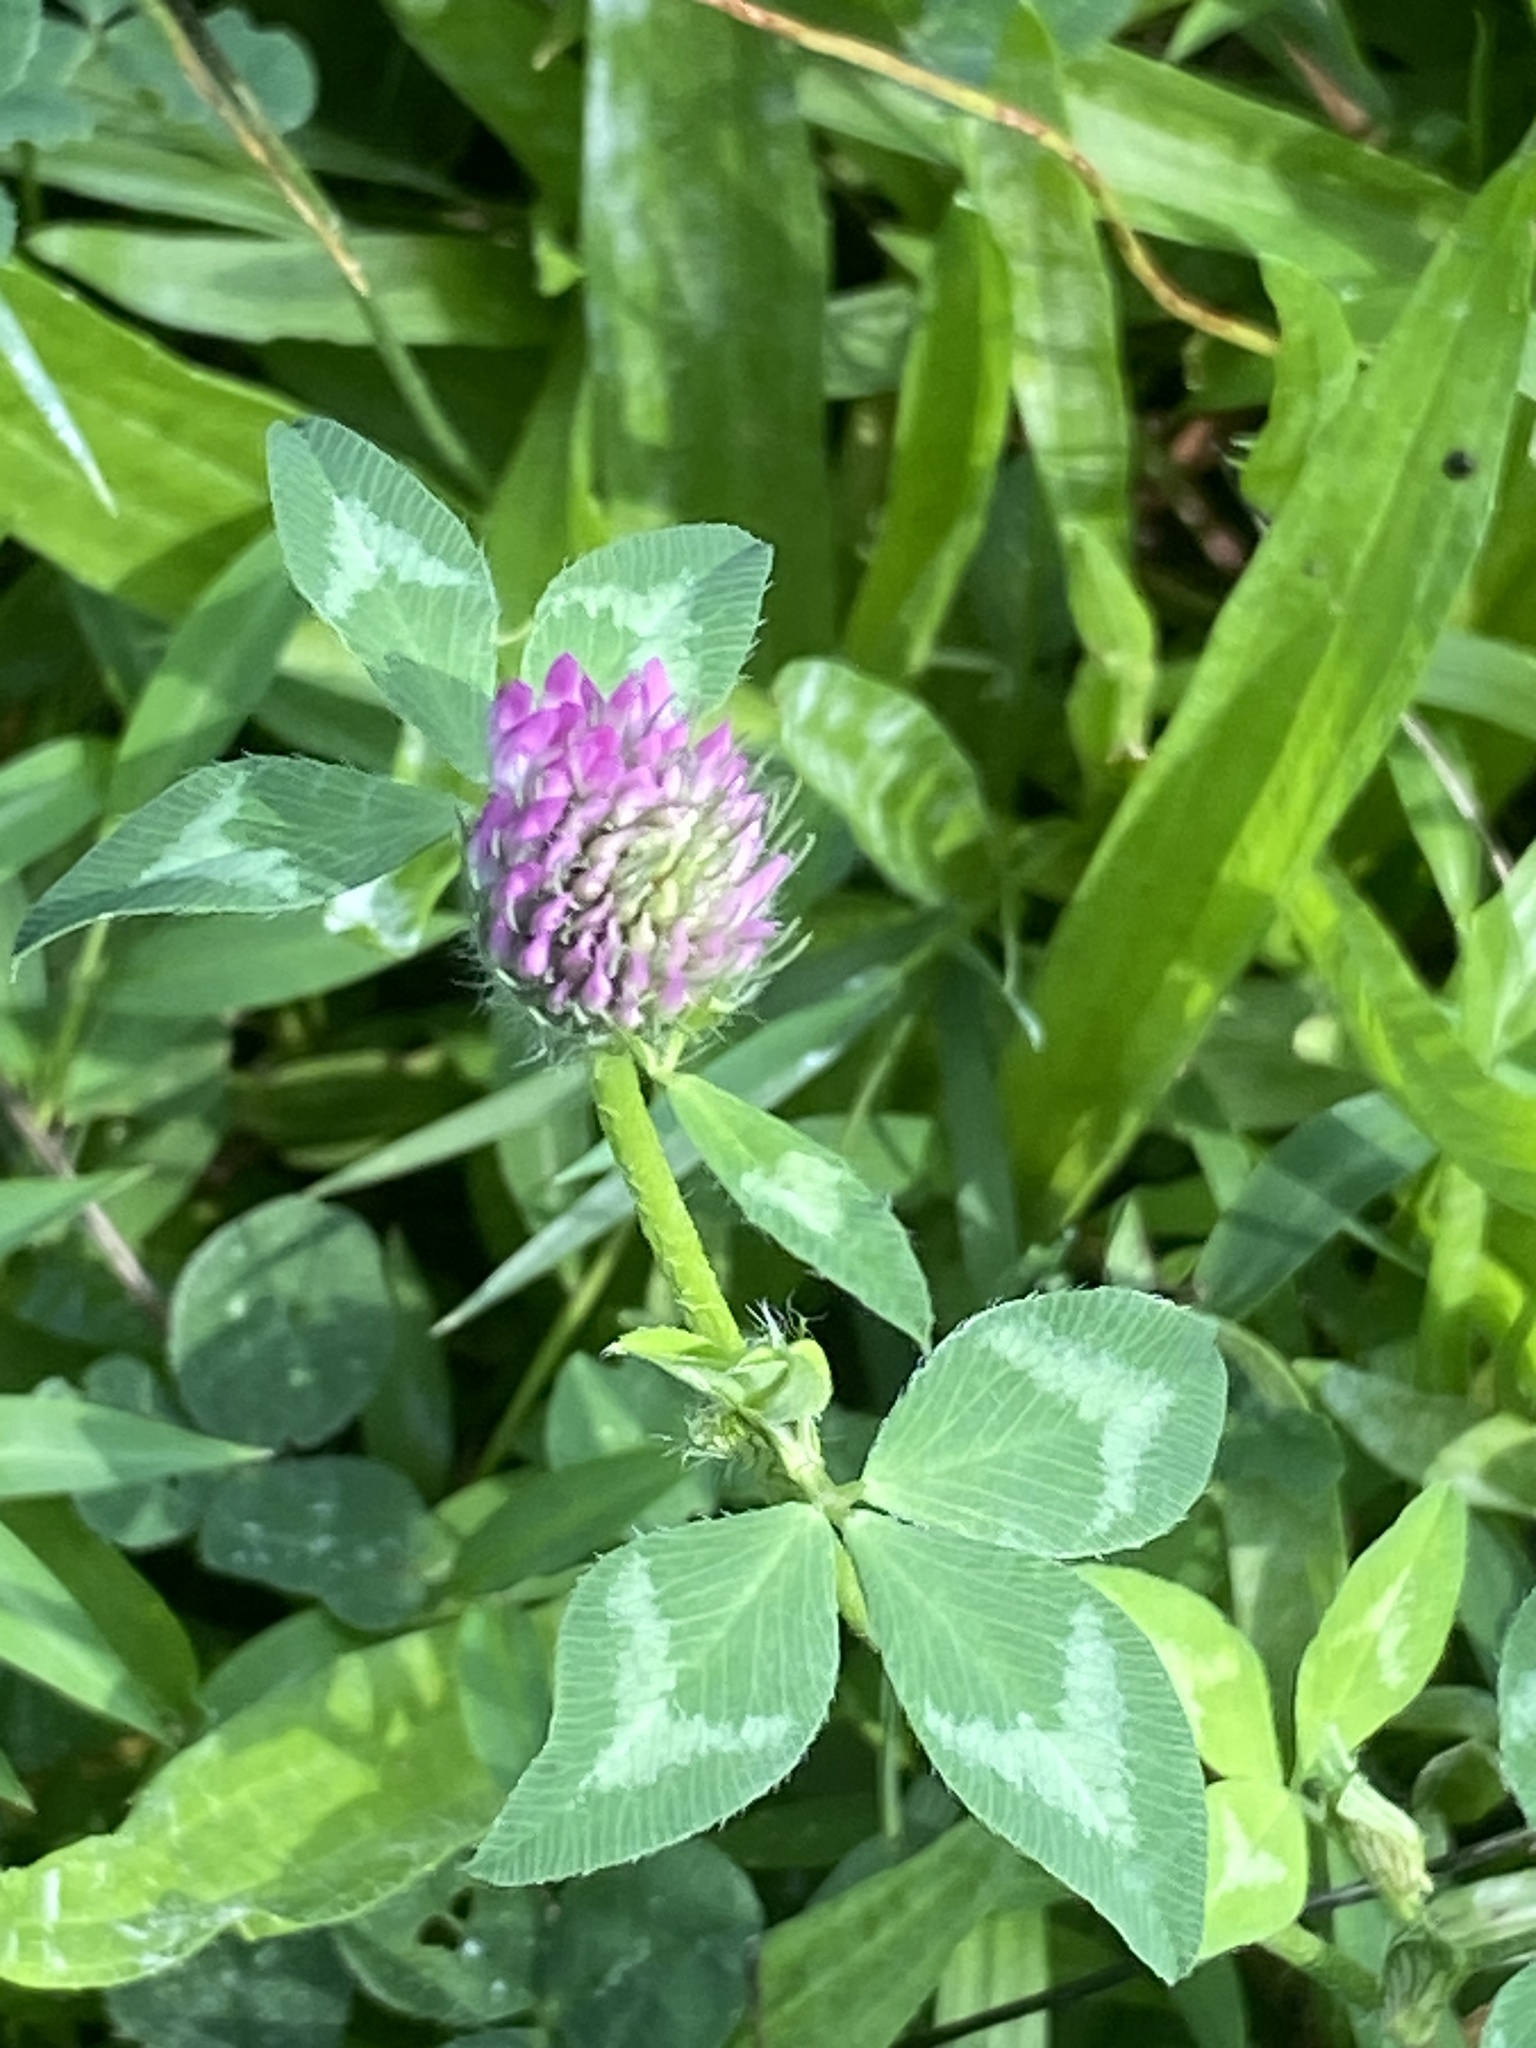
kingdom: Plantae
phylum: Tracheophyta
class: Magnoliopsida
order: Fabales
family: Fabaceae
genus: Trifolium
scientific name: Trifolium pratense
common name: Red clover
